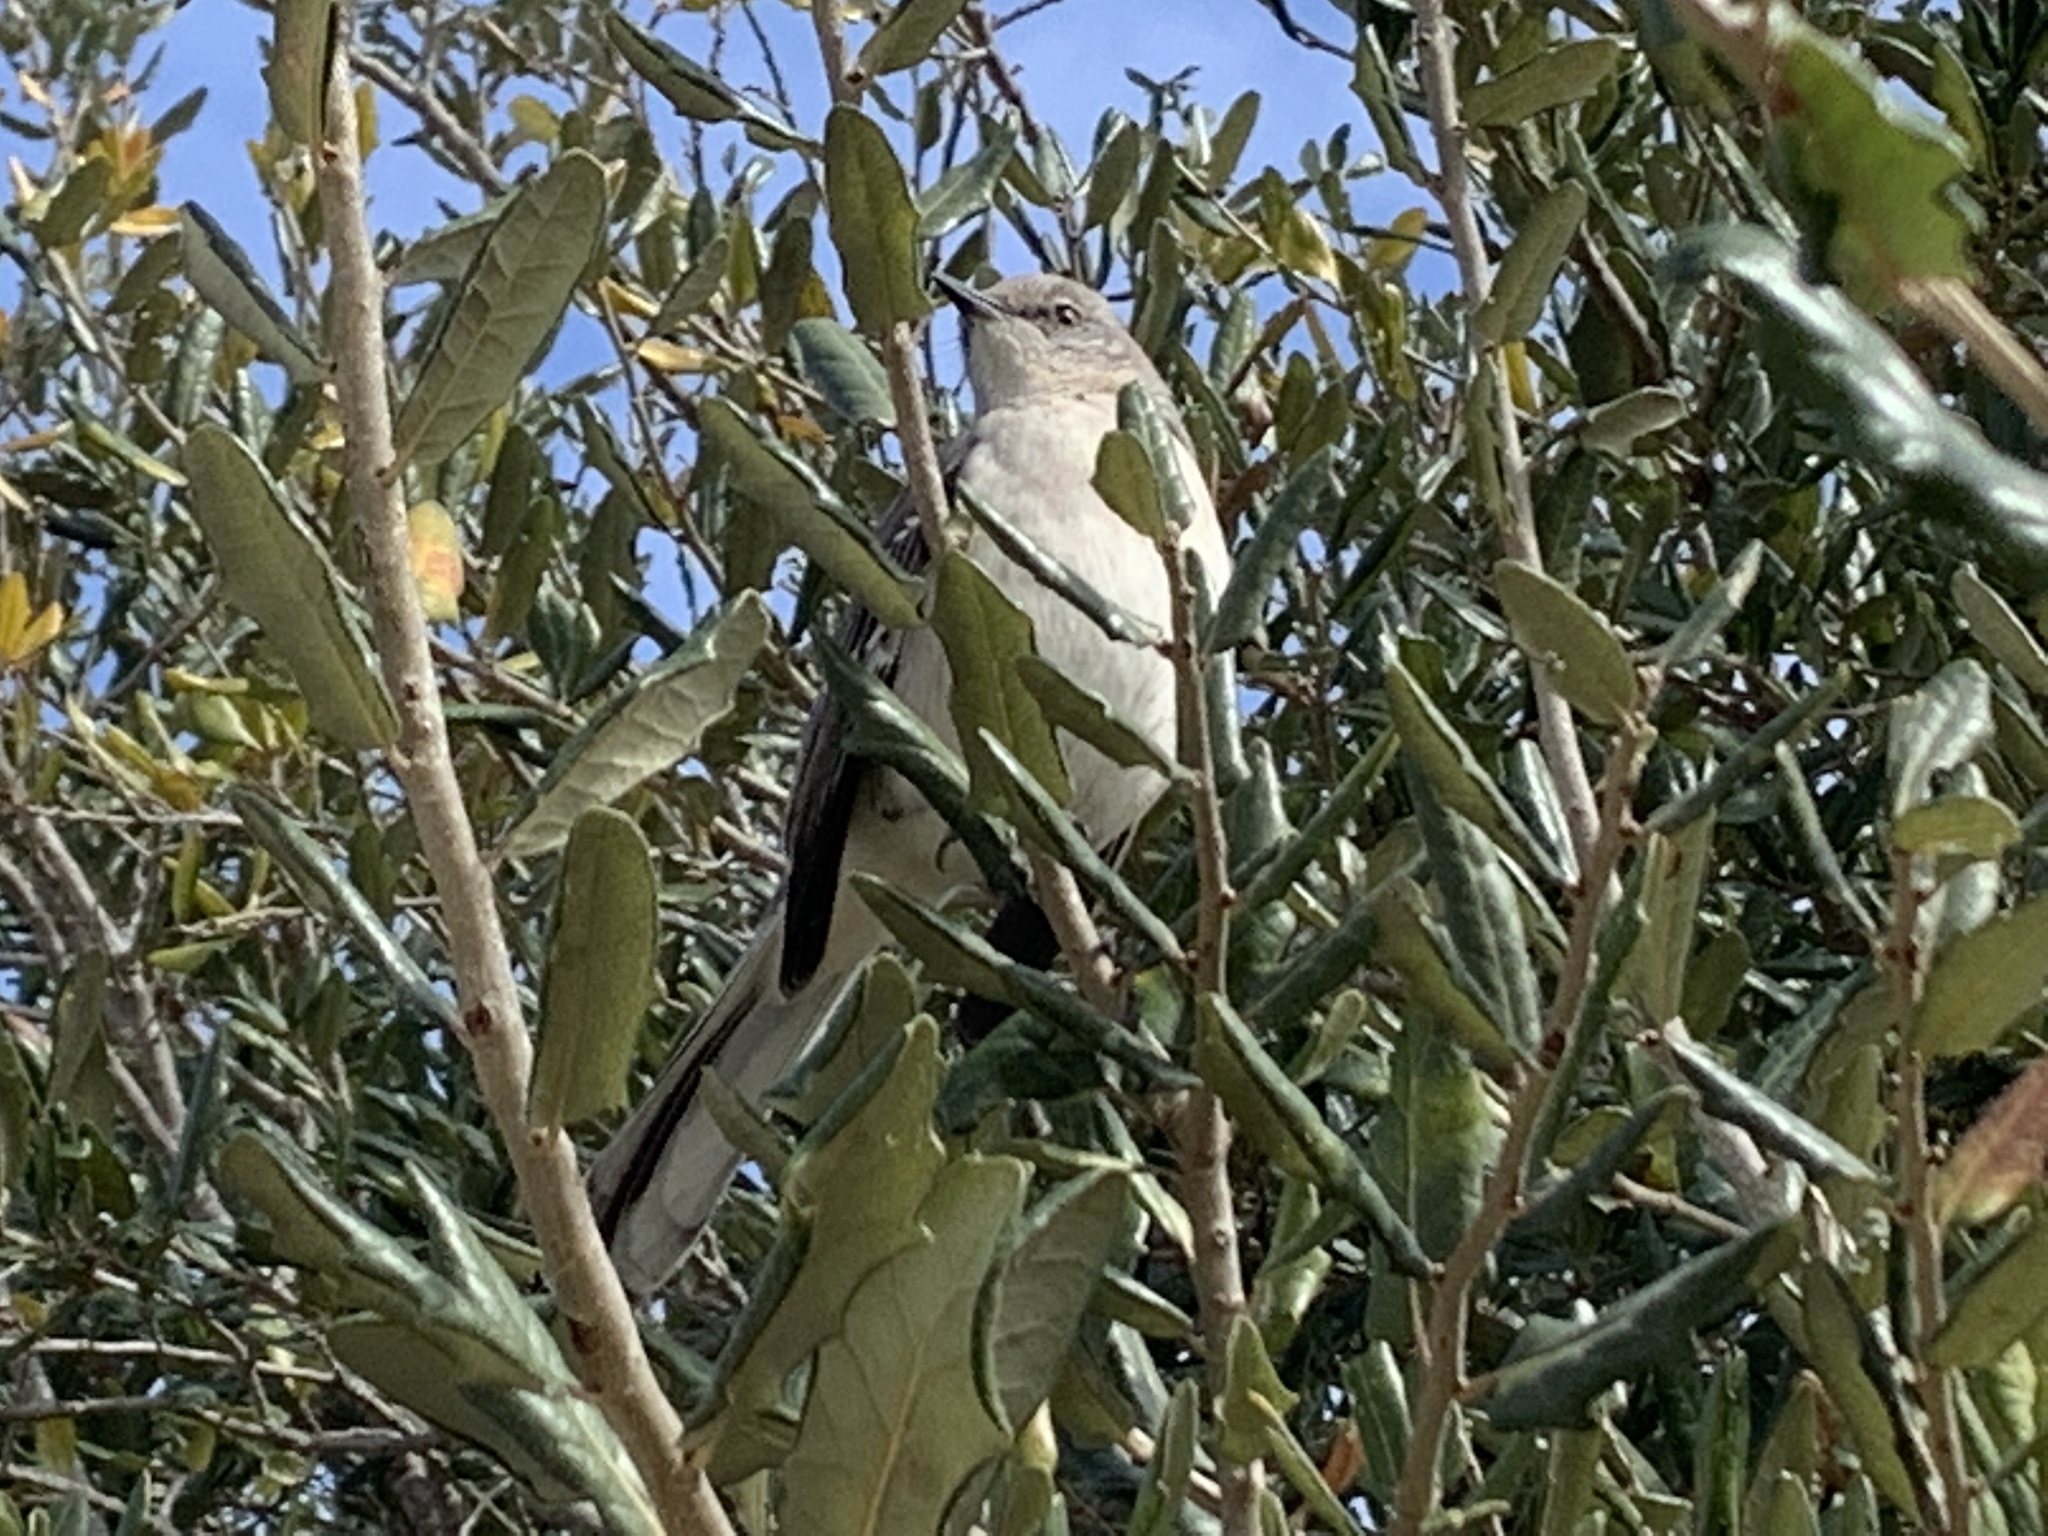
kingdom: Animalia
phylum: Chordata
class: Aves
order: Passeriformes
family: Mimidae
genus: Mimus
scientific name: Mimus polyglottos
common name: Northern mockingbird
